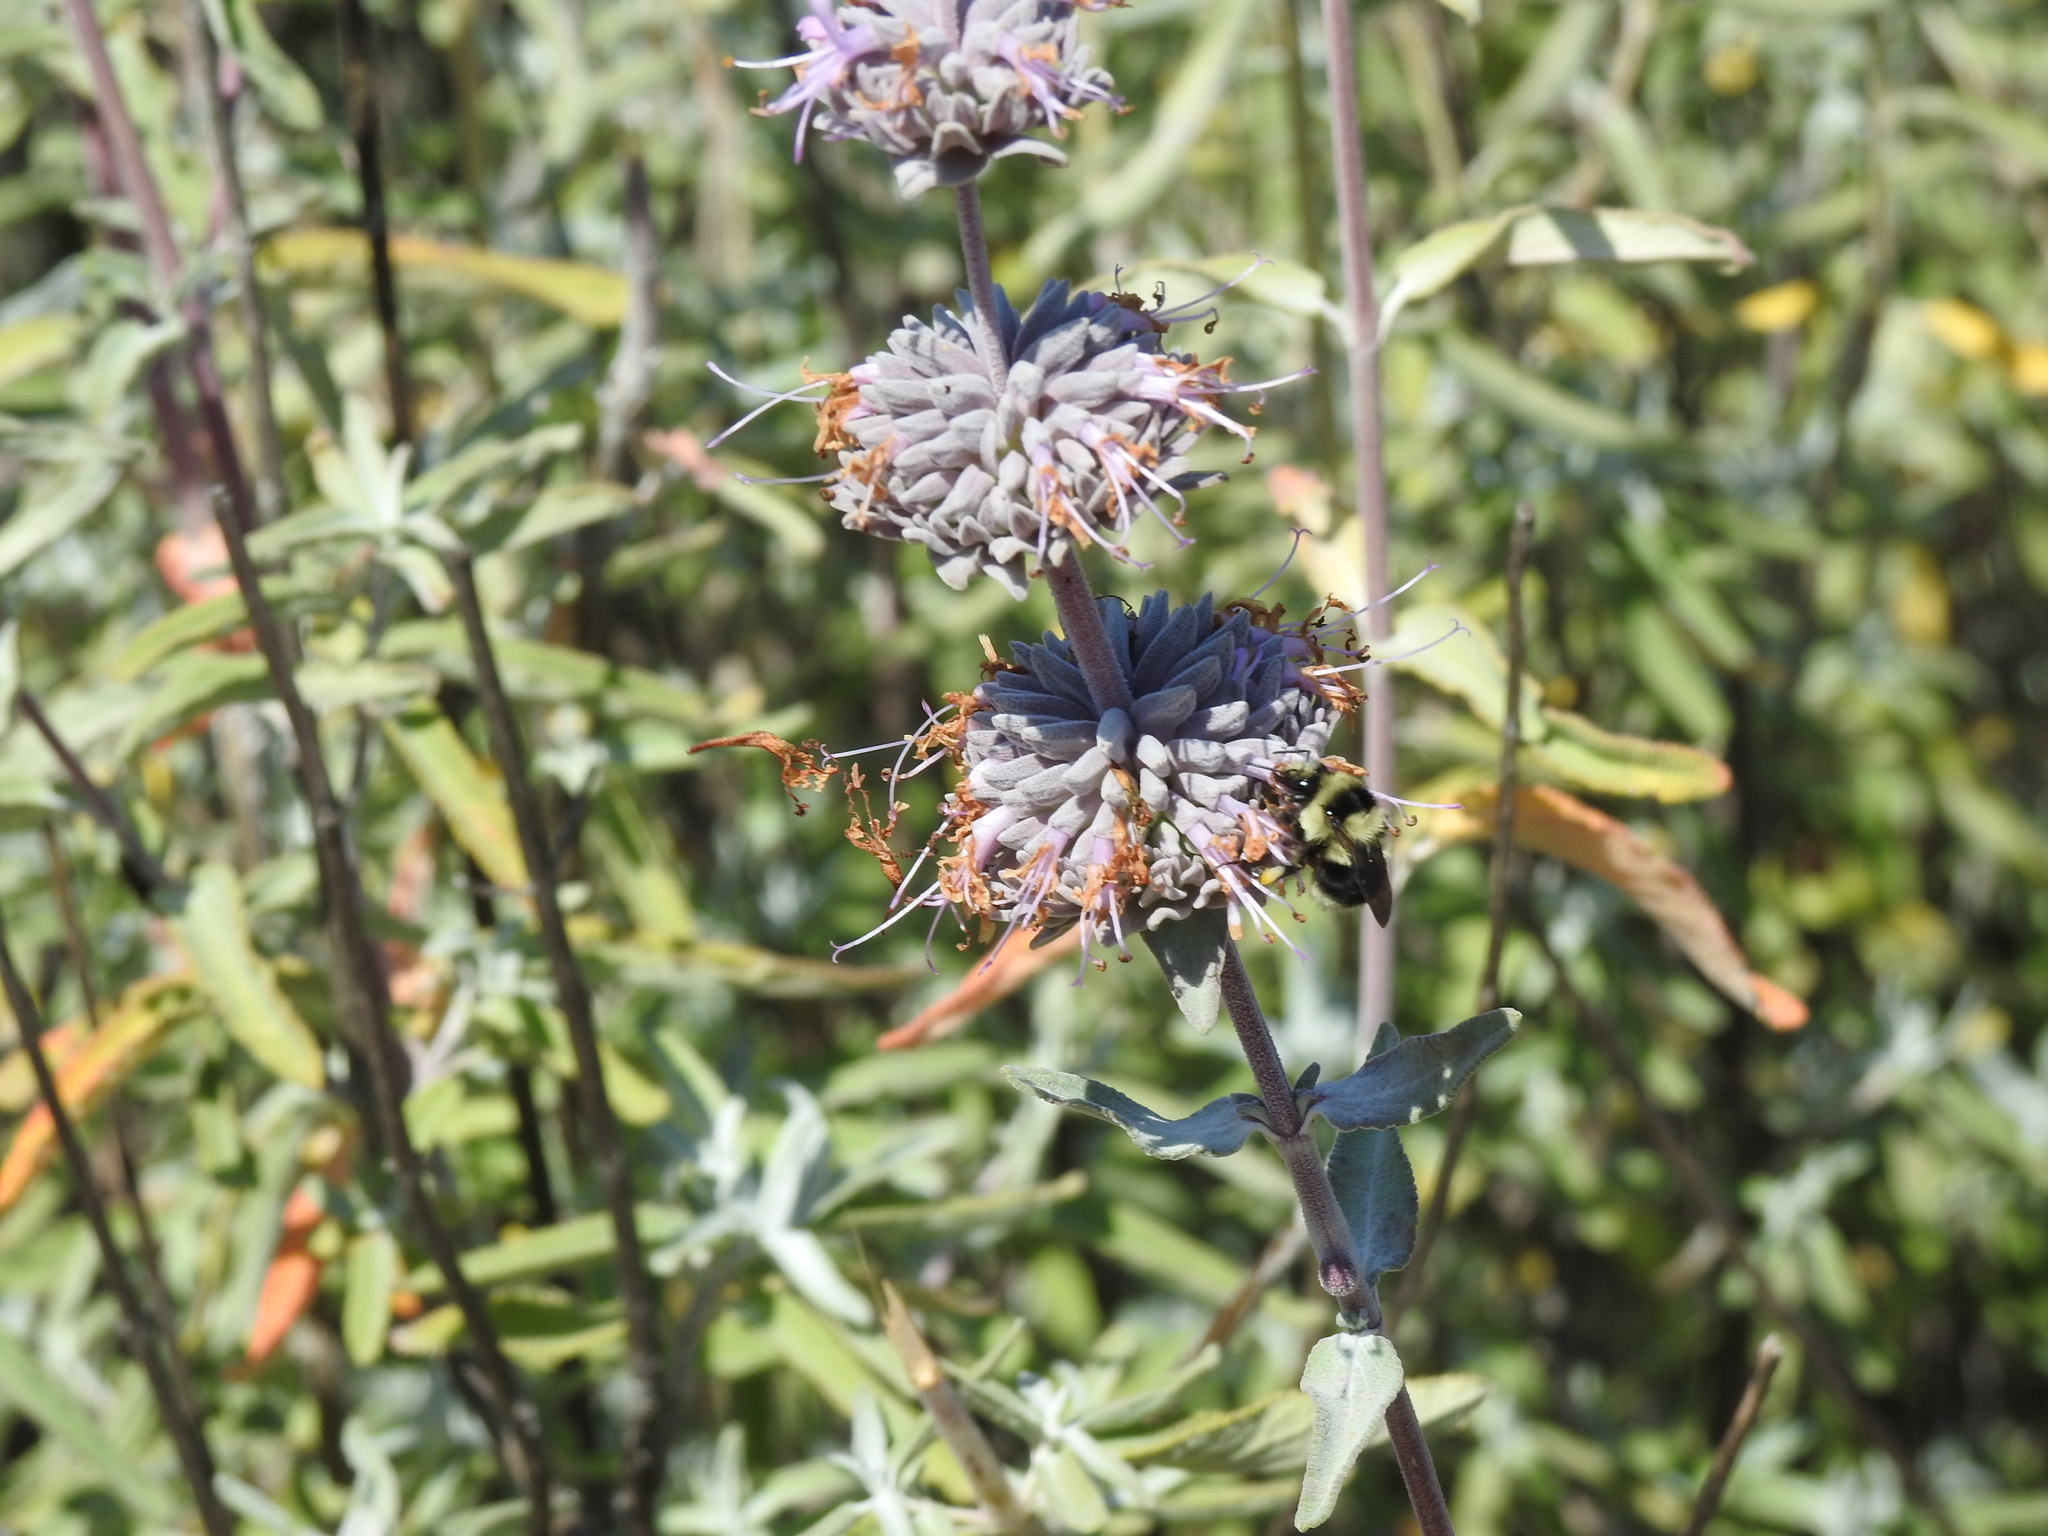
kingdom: Animalia
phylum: Arthropoda
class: Insecta
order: Hymenoptera
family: Apidae
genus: Bombus
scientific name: Bombus melanopygus
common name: Black tail bumble bee
